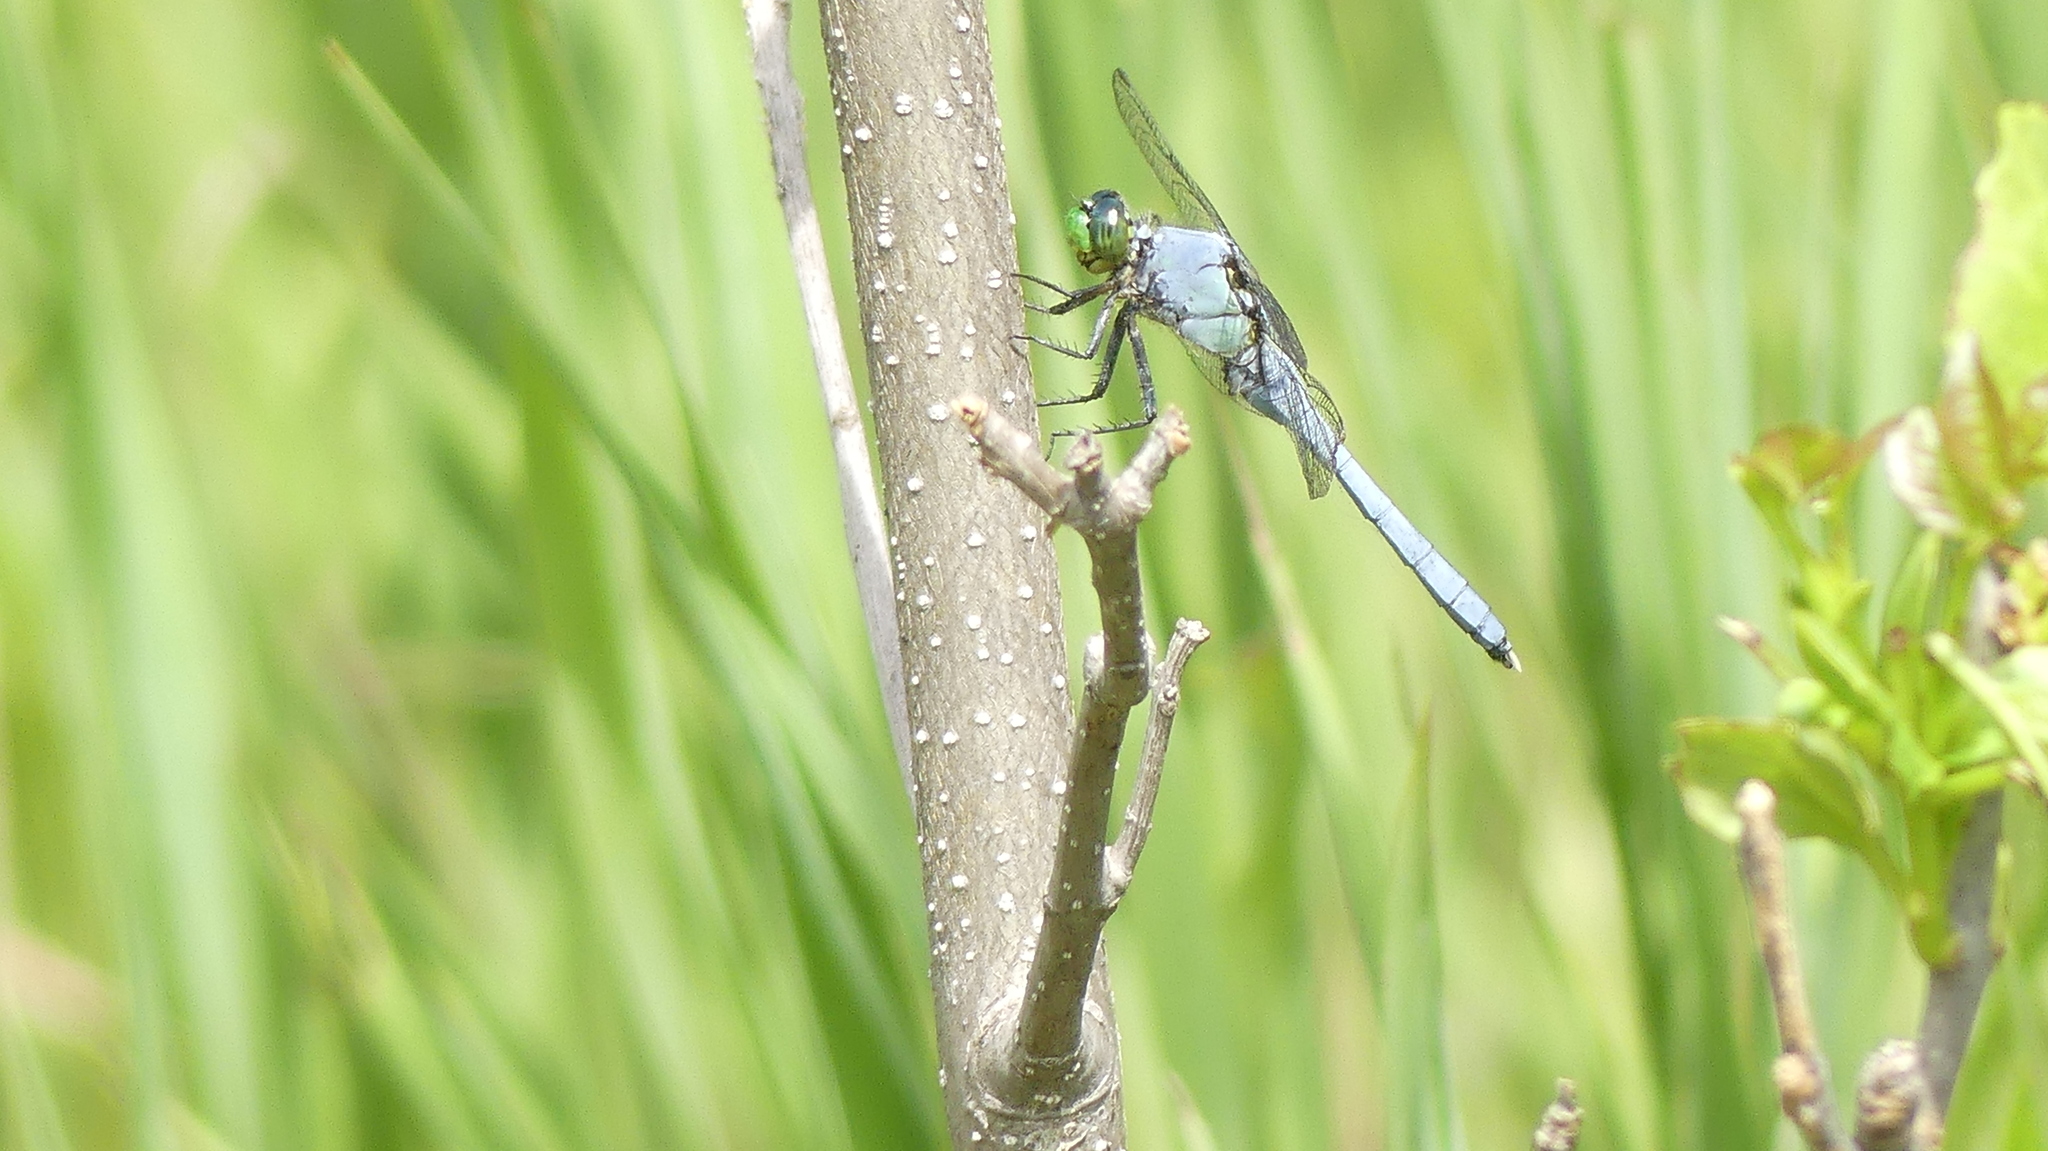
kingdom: Animalia
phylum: Arthropoda
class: Insecta
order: Odonata
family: Libellulidae
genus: Erythemis
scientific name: Erythemis simplicicollis
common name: Eastern pondhawk
